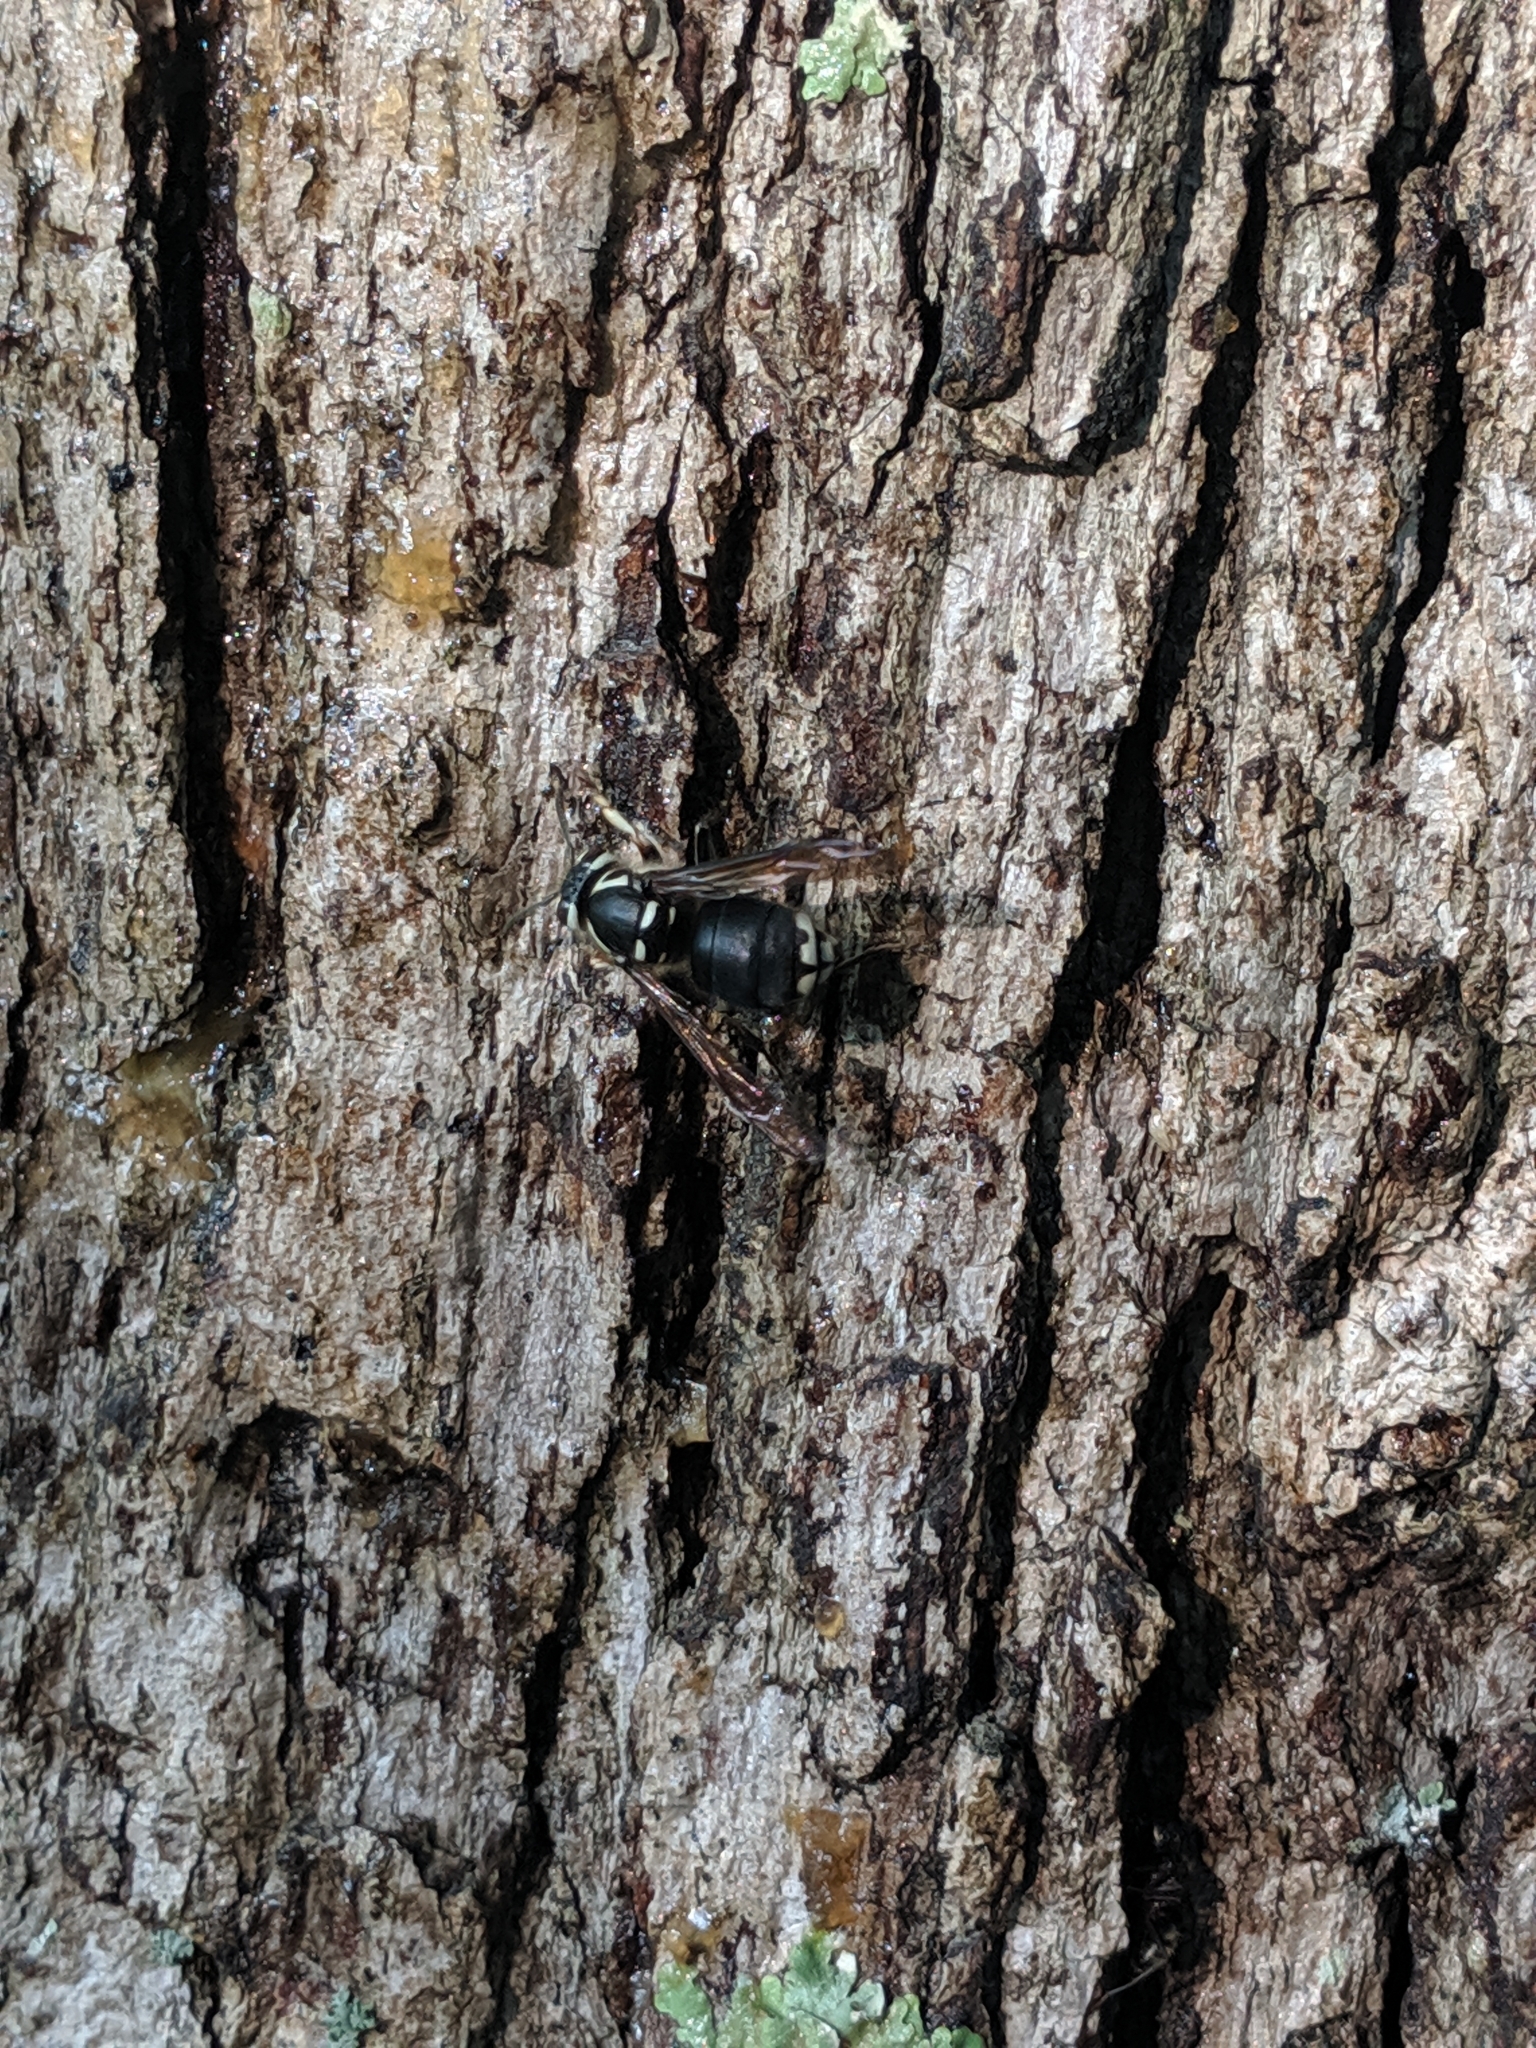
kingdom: Animalia
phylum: Arthropoda
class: Insecta
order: Hymenoptera
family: Vespidae
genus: Dolichovespula
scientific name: Dolichovespula maculata
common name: Bald-faced hornet
